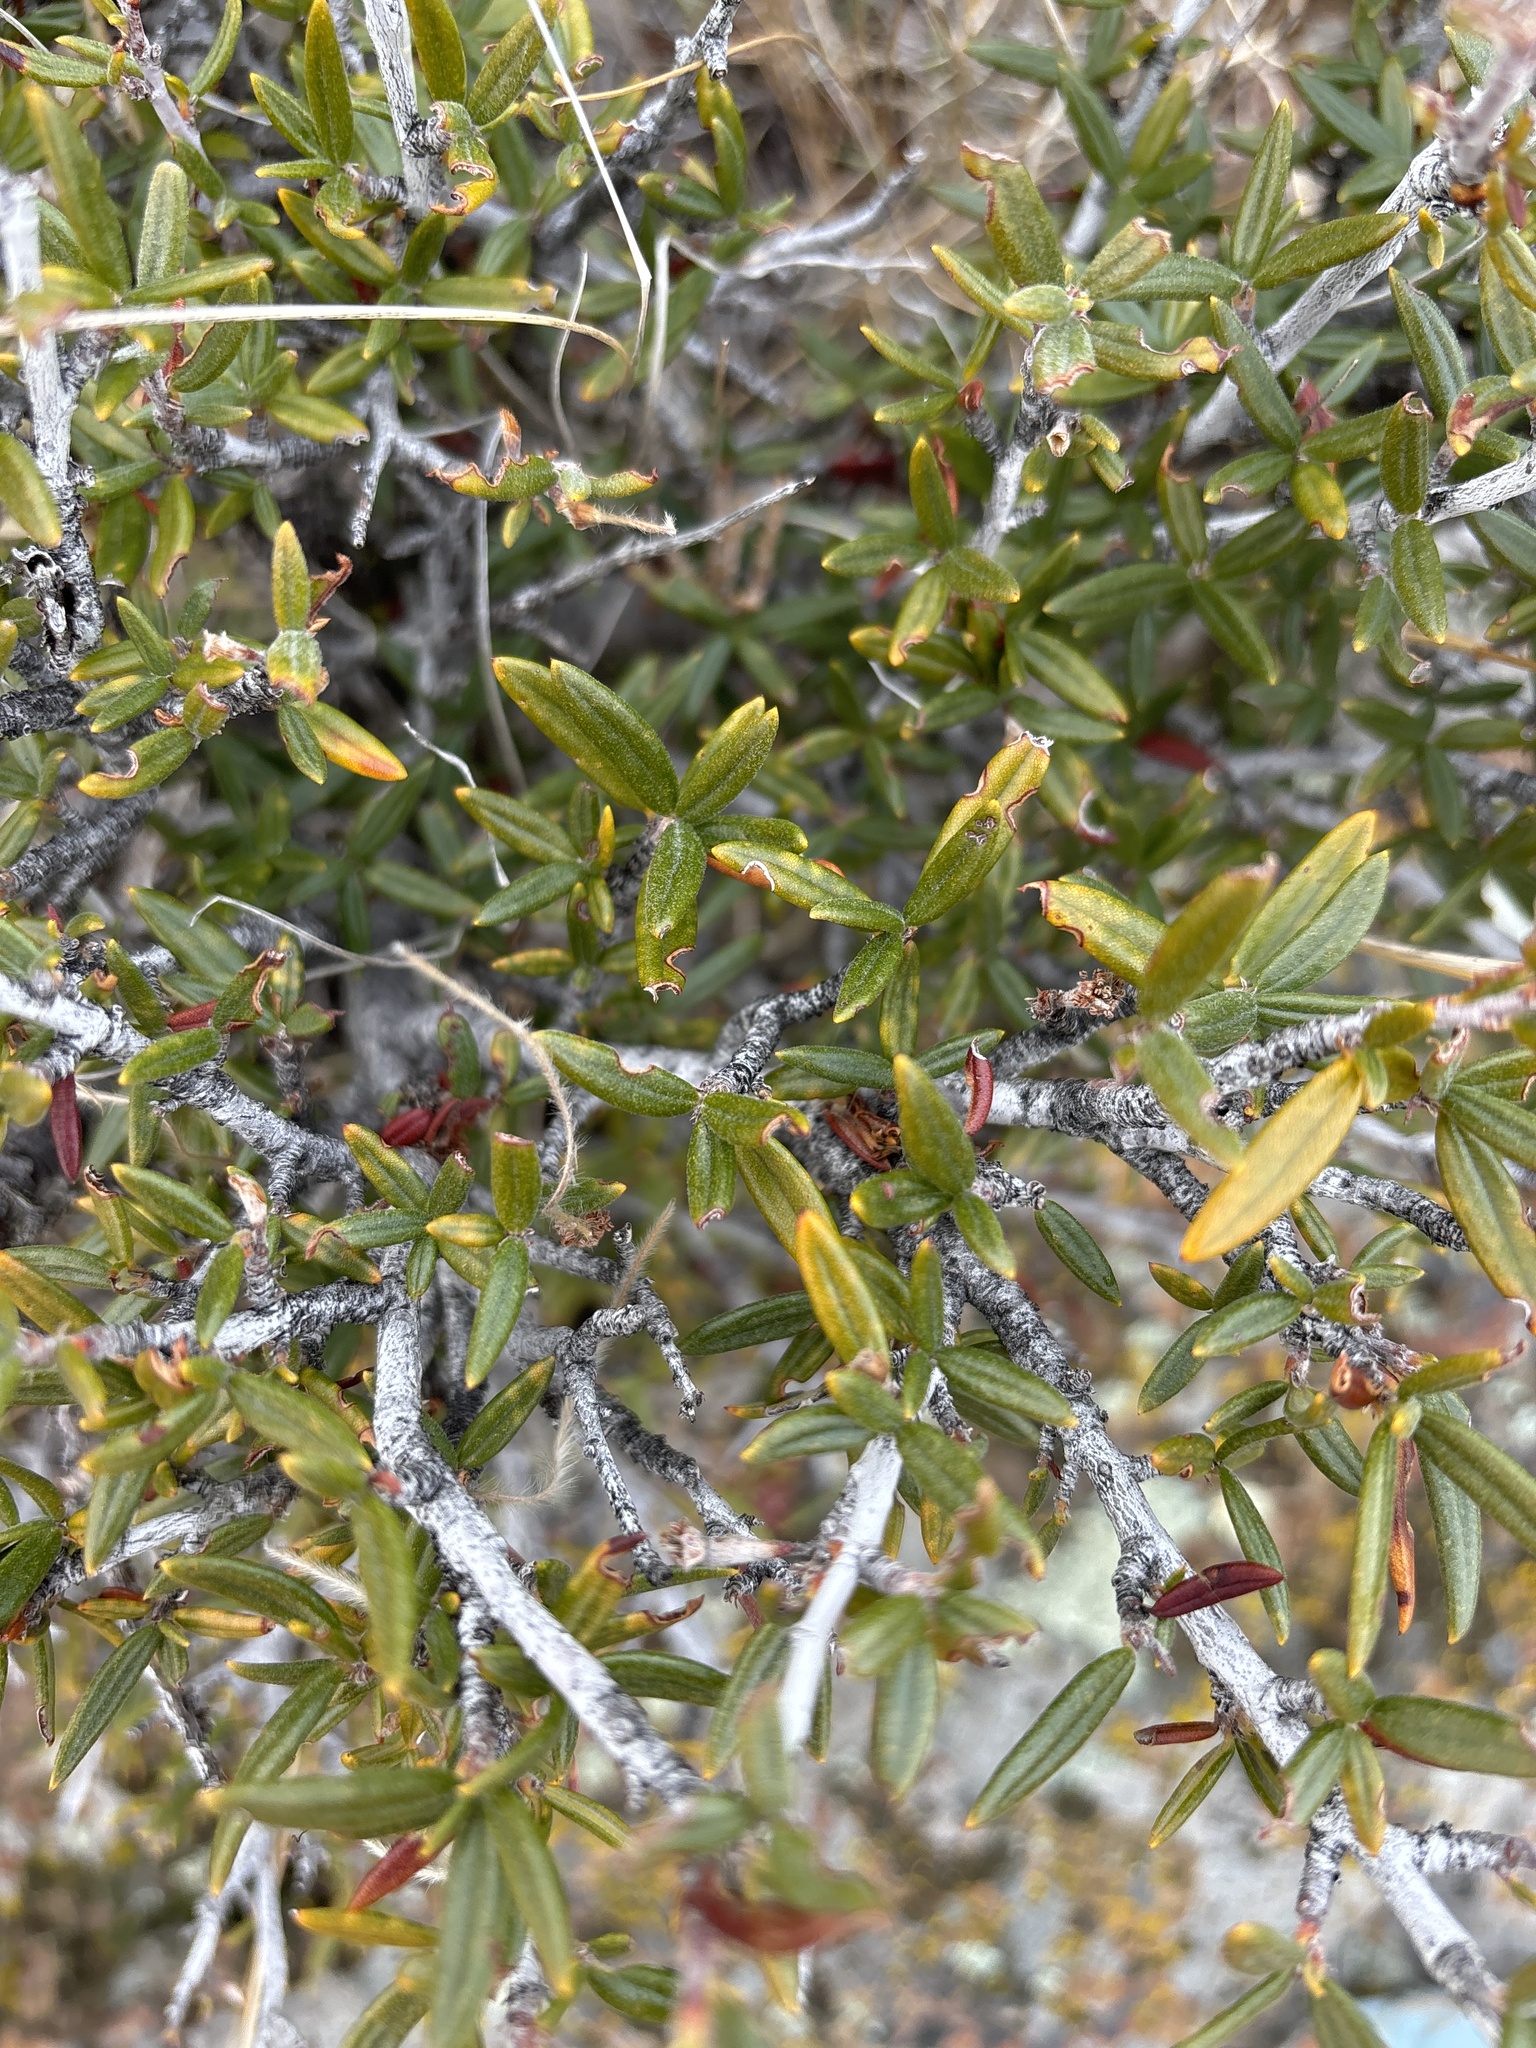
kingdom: Plantae
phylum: Tracheophyta
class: Magnoliopsida
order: Rosales
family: Rosaceae
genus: Cercocarpus
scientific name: Cercocarpus ledifolius
